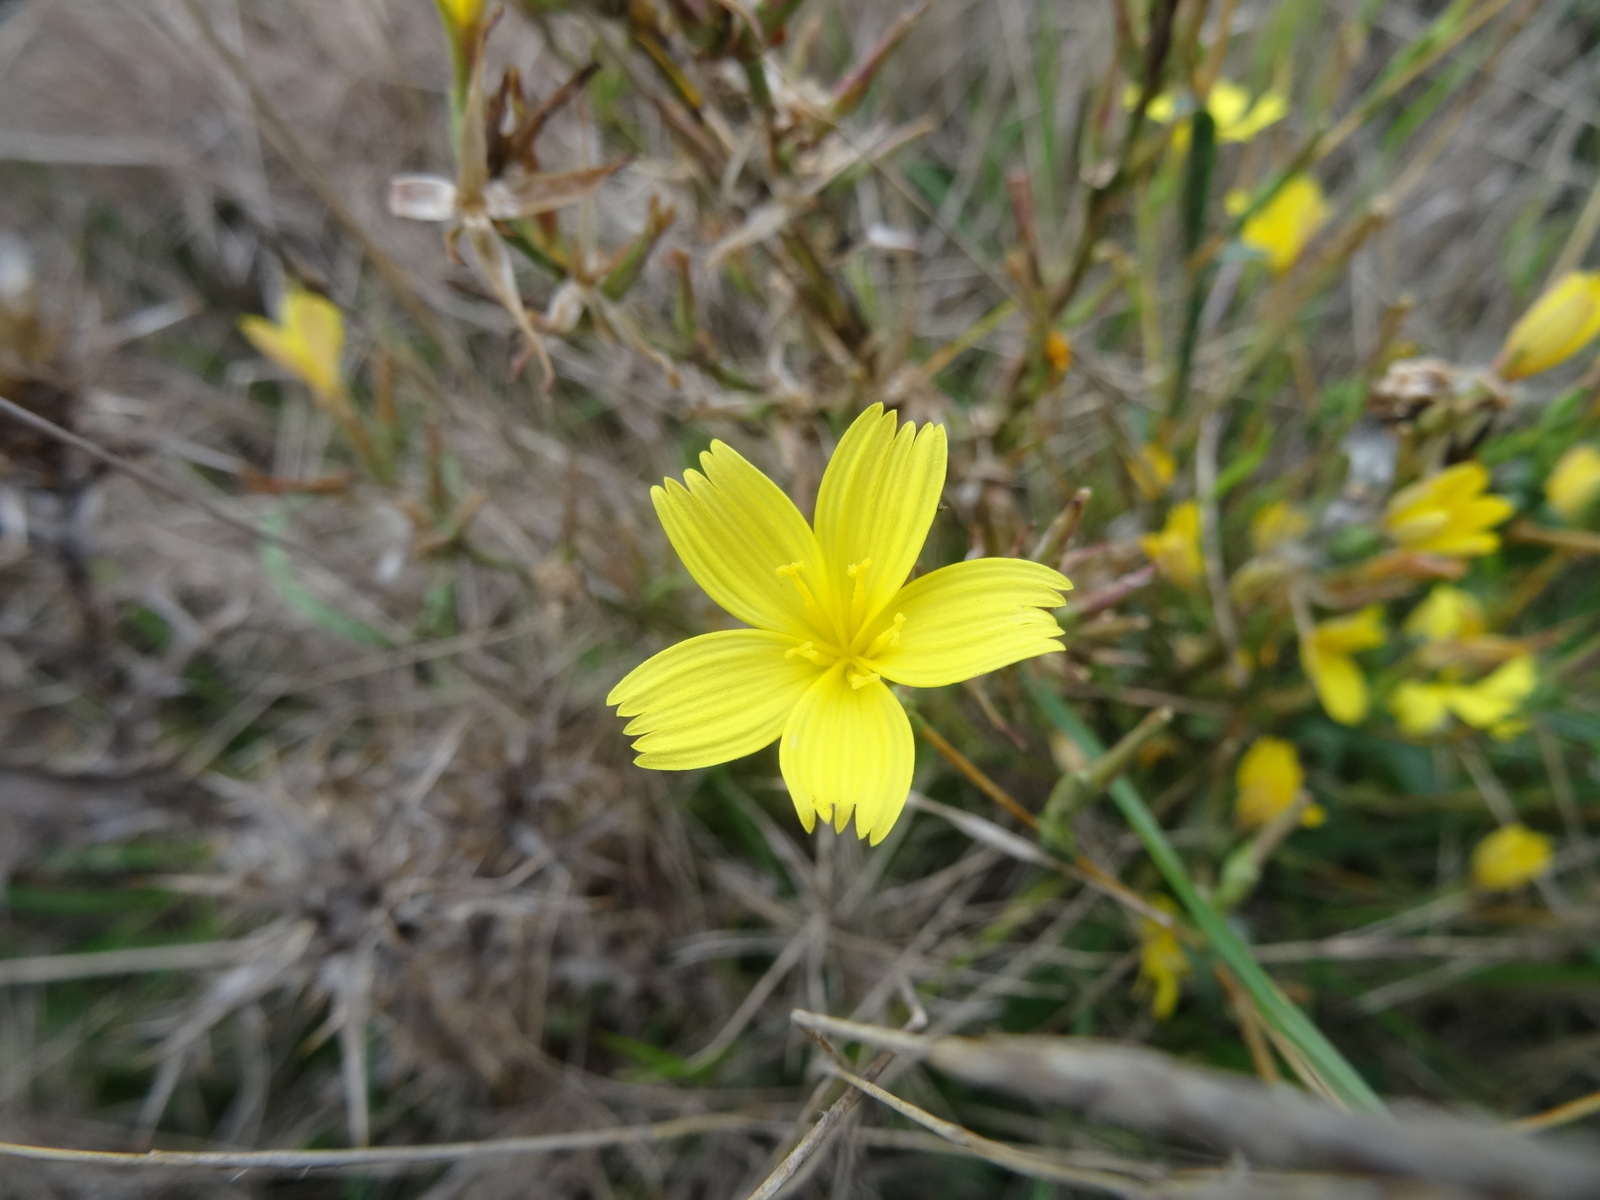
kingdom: Plantae
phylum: Tracheophyta
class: Magnoliopsida
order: Asterales
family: Asteraceae
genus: Lactuca
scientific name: Lactuca viminea
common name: Pliant lettuce
